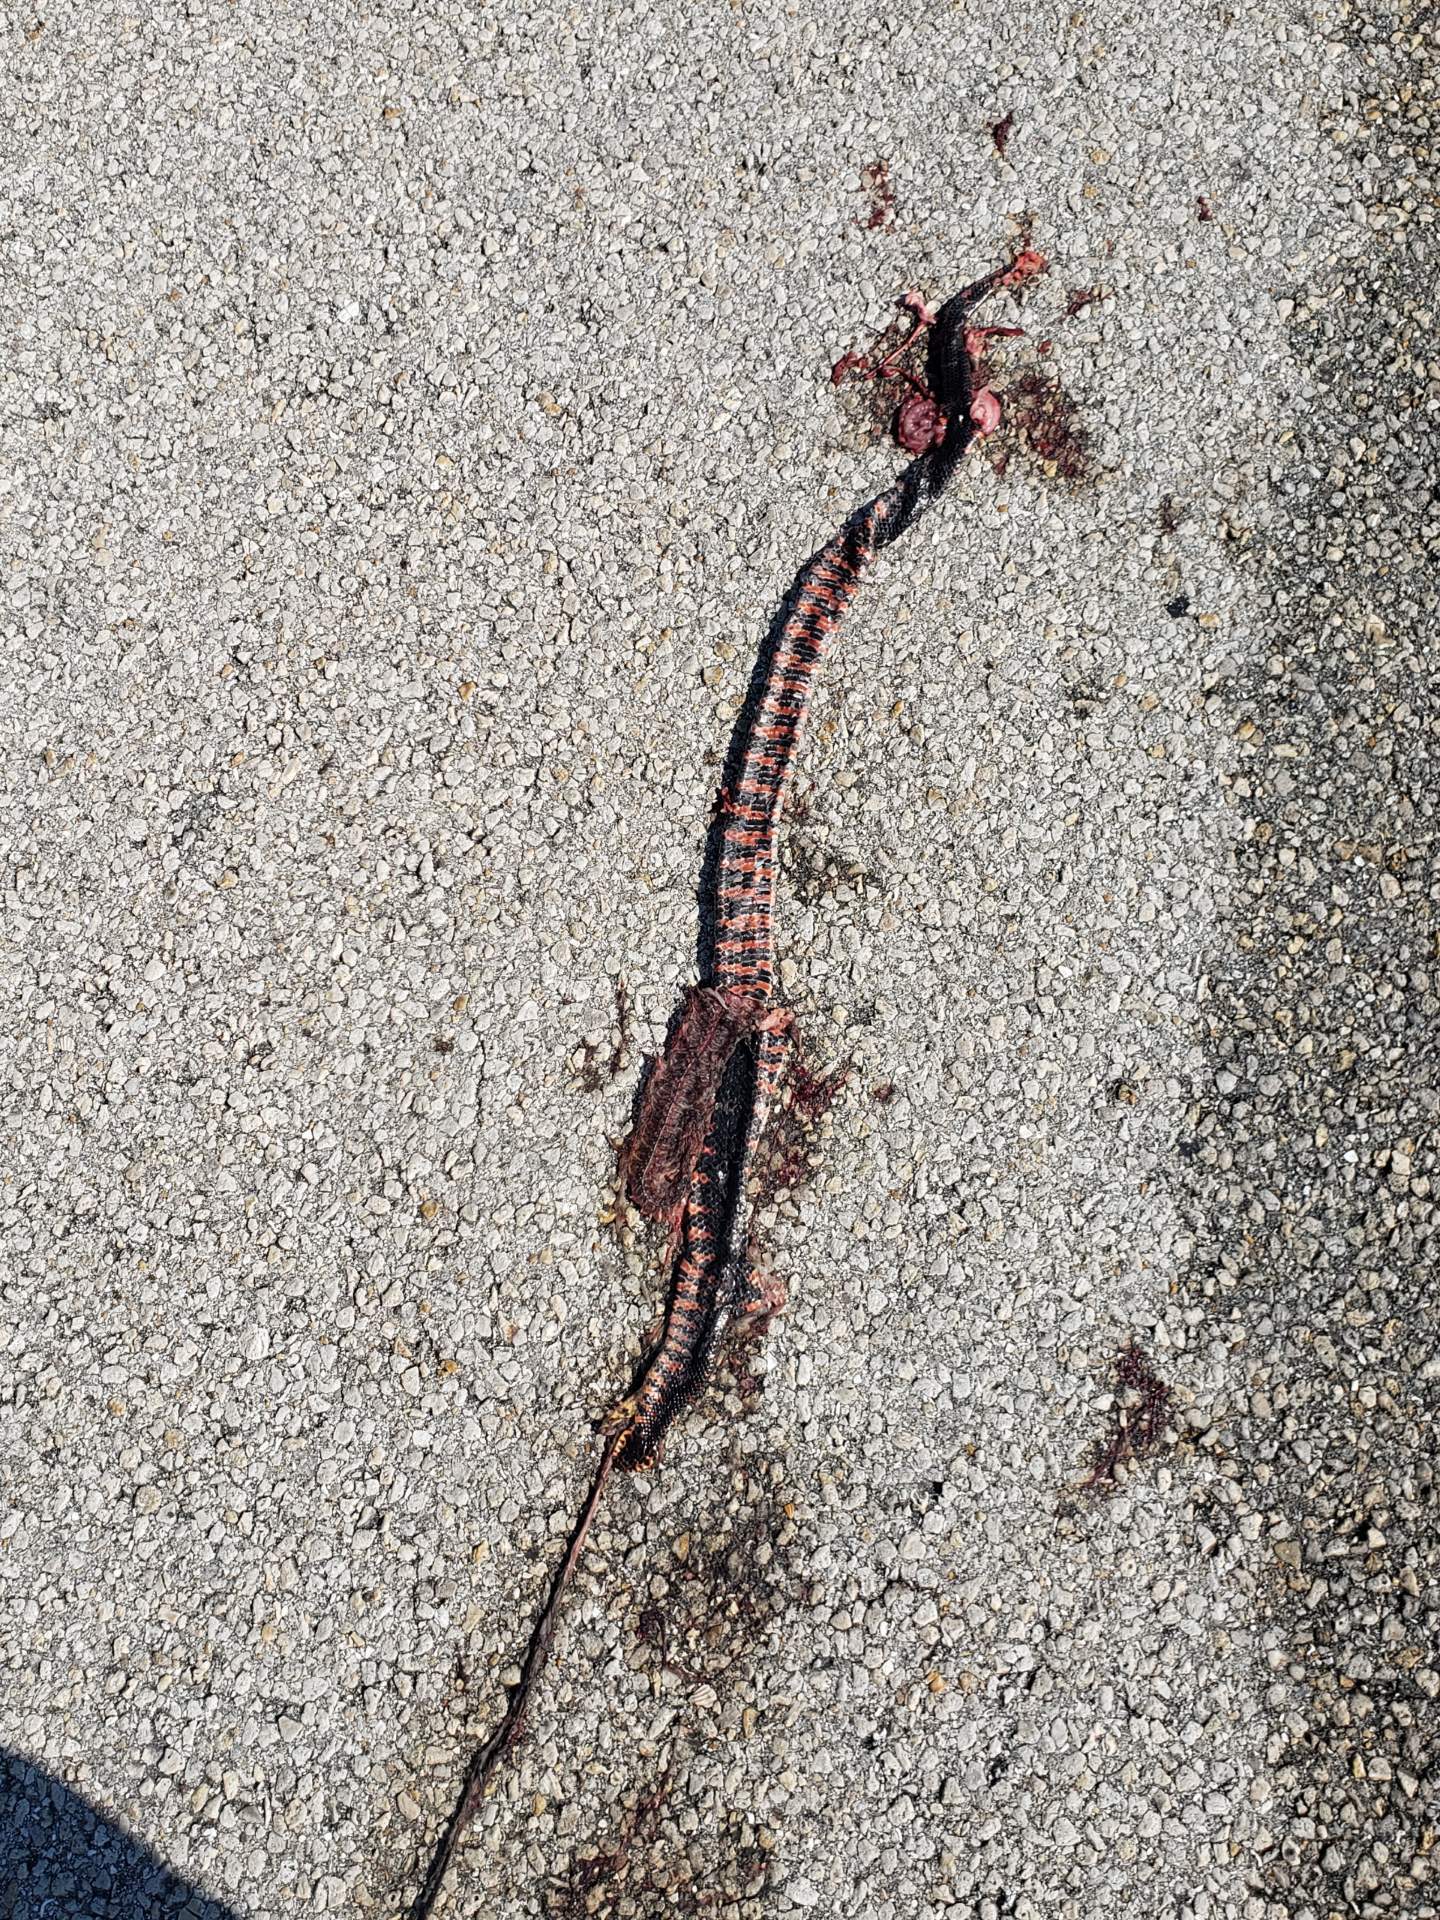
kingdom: Animalia
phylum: Chordata
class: Squamata
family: Colubridae
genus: Farancia
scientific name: Farancia abacura
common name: Mud snake
